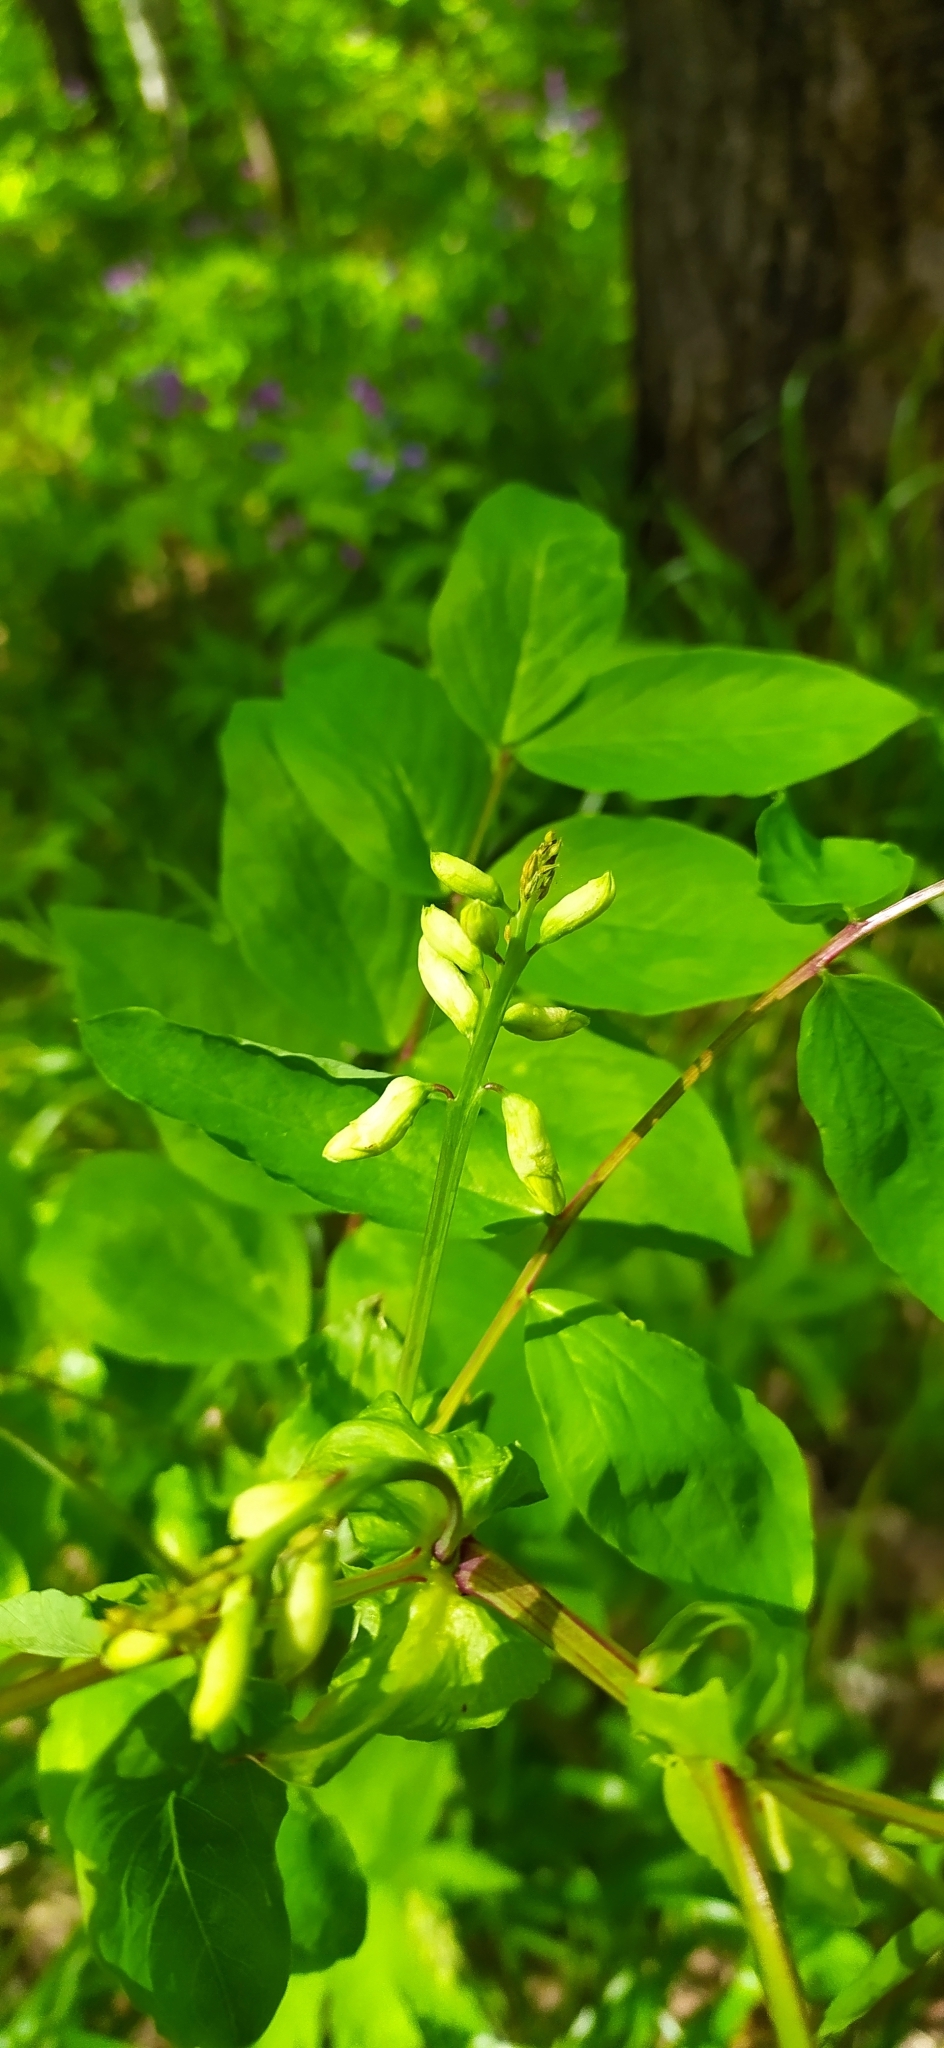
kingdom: Plantae
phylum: Tracheophyta
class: Magnoliopsida
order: Fabales
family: Fabaceae
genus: Lathyrus
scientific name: Lathyrus gmelinii
